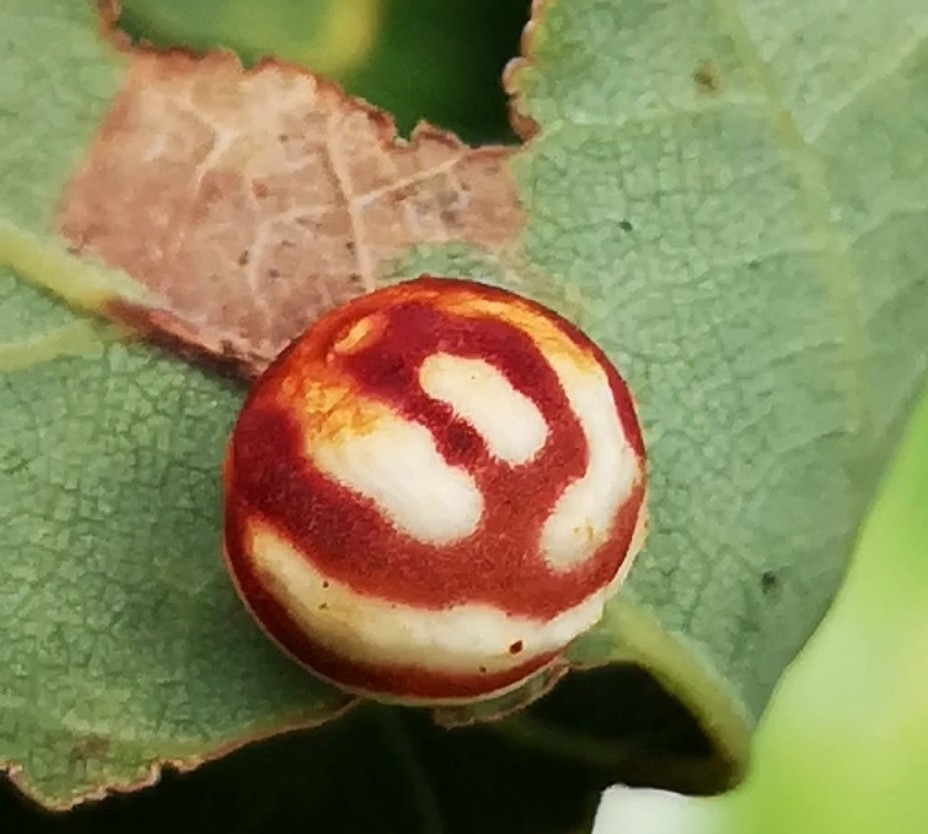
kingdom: Animalia
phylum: Arthropoda
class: Insecta
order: Hymenoptera
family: Cynipidae
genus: Cynips
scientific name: Cynips longiventris
